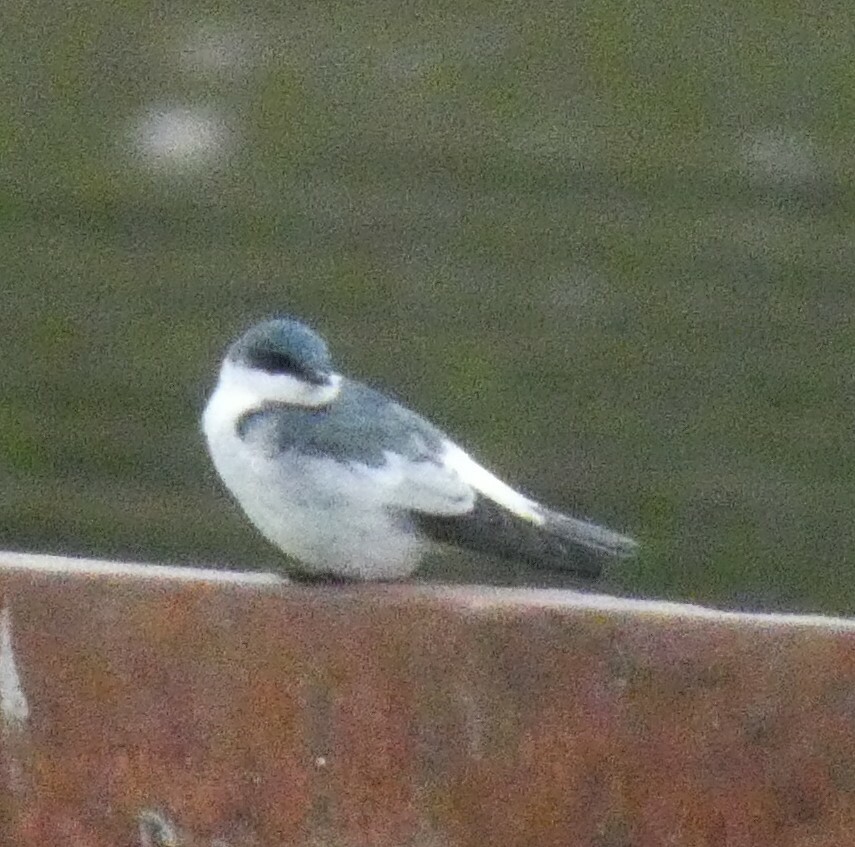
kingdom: Animalia
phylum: Chordata
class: Aves
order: Passeriformes
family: Hirundinidae
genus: Tachycineta
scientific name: Tachycineta albiventer
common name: White-winged swallow
